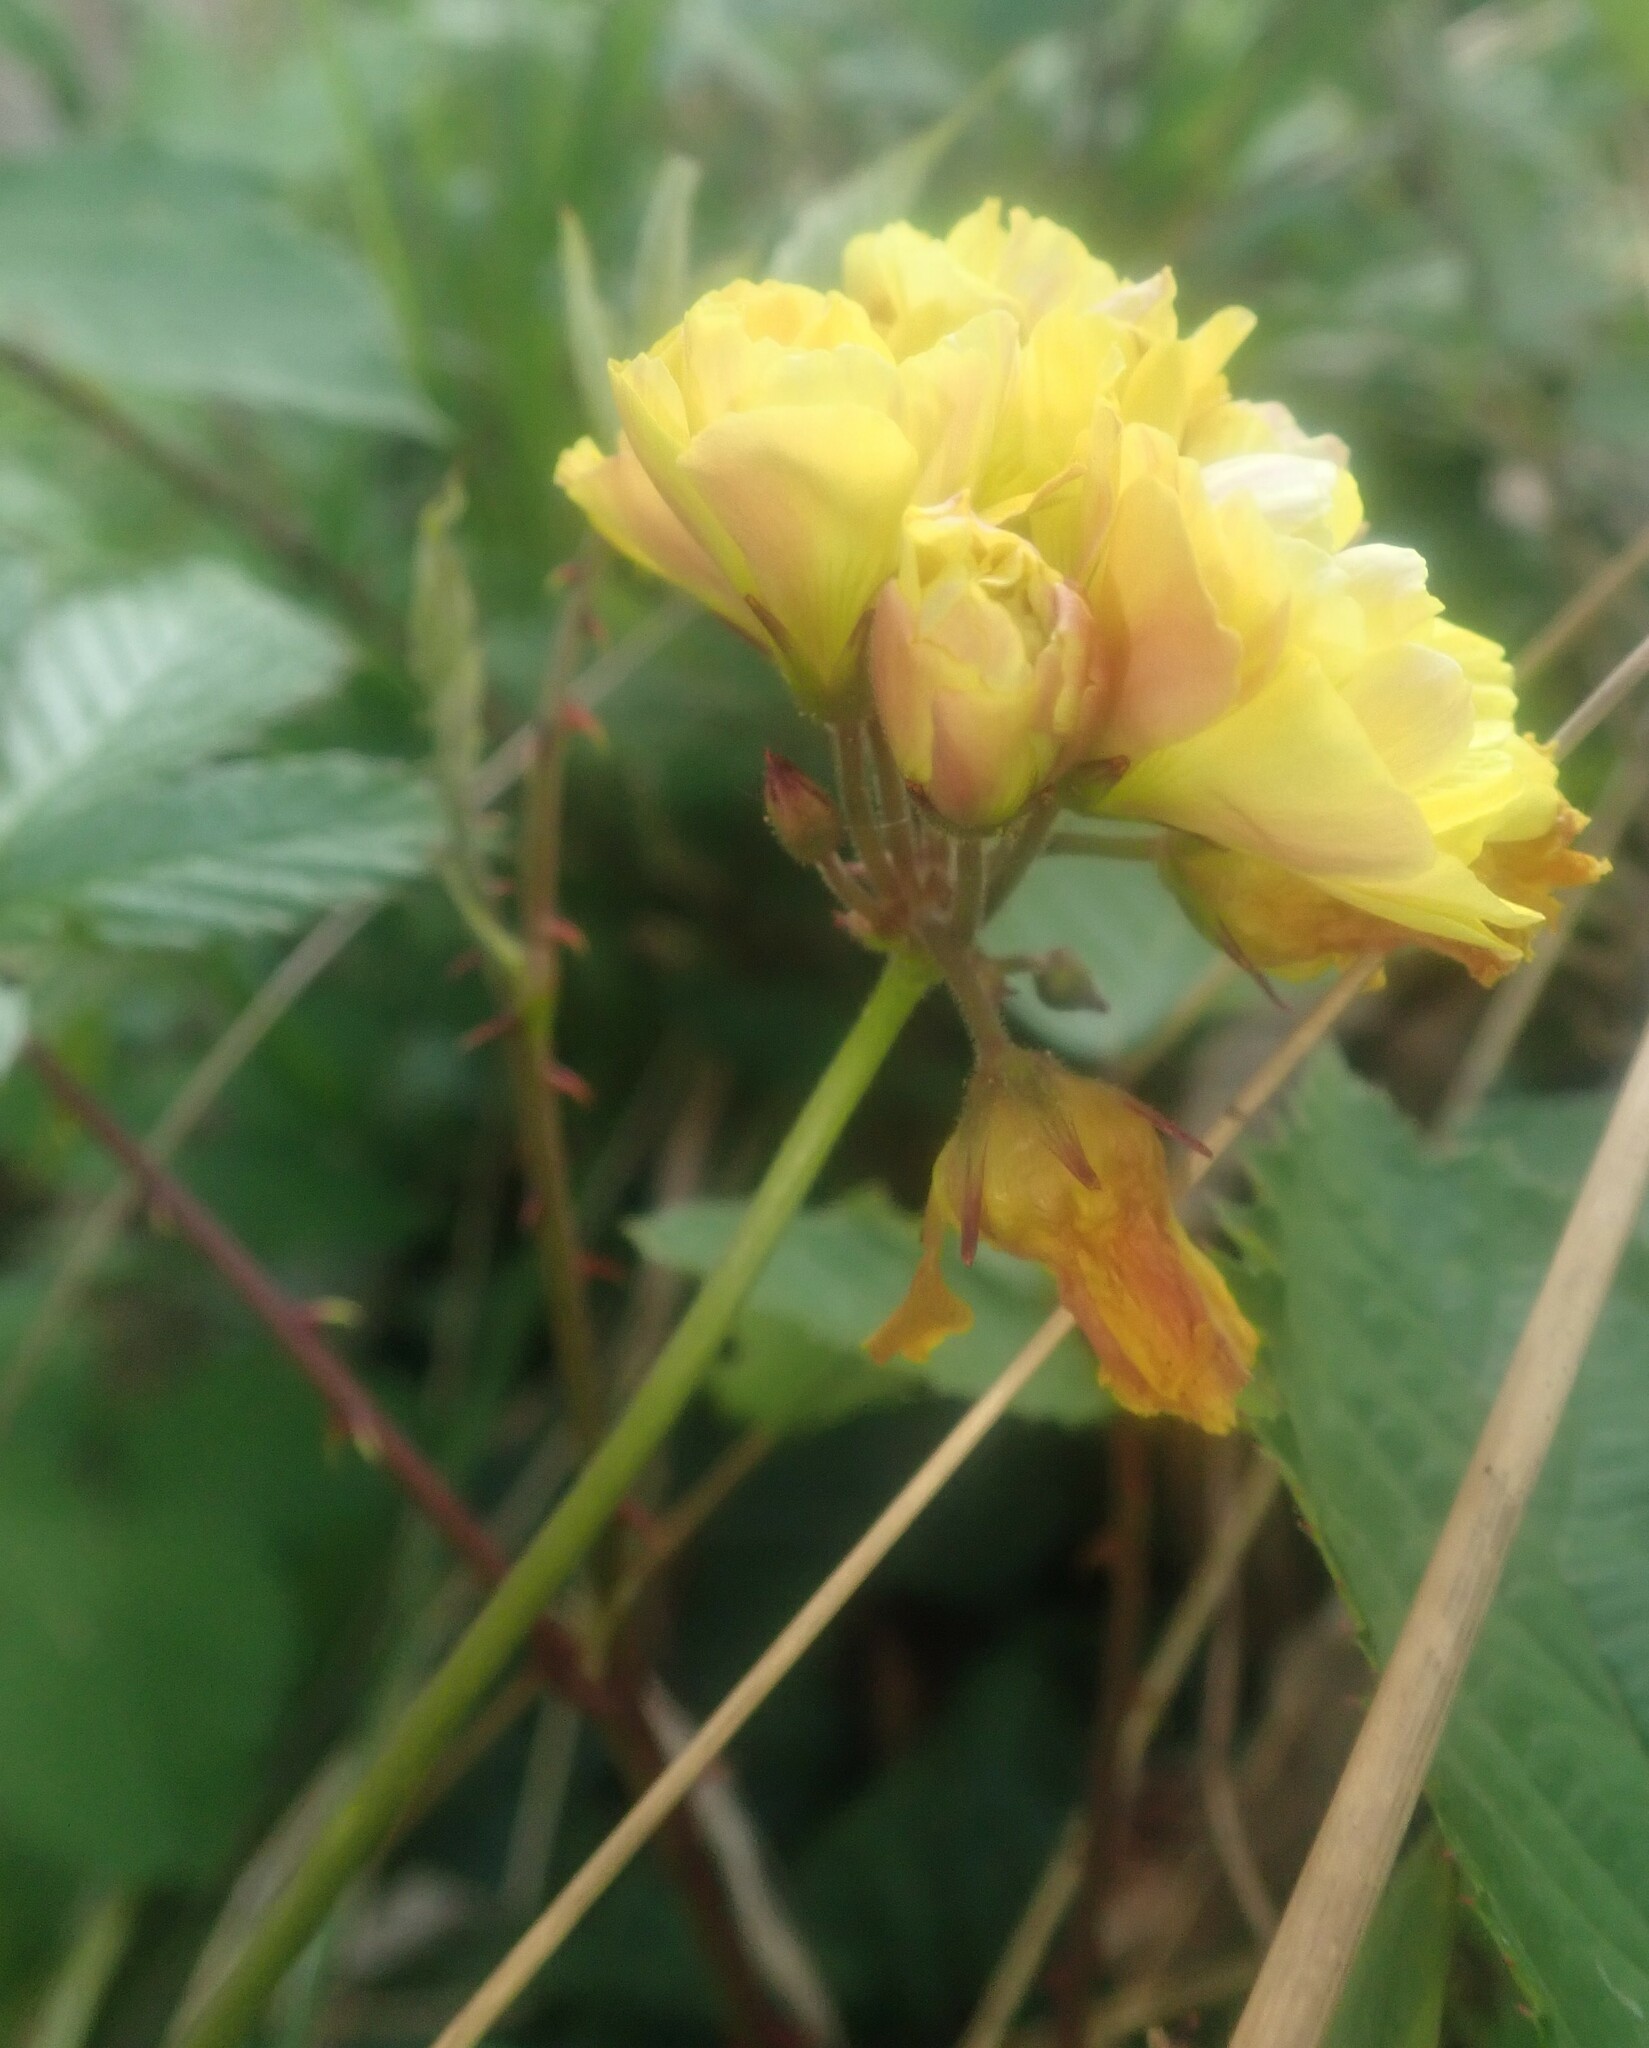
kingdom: Plantae
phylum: Tracheophyta
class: Magnoliopsida
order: Oxalidales
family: Oxalidaceae
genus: Oxalis
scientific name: Oxalis pes-caprae
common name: Bermuda-buttercup
